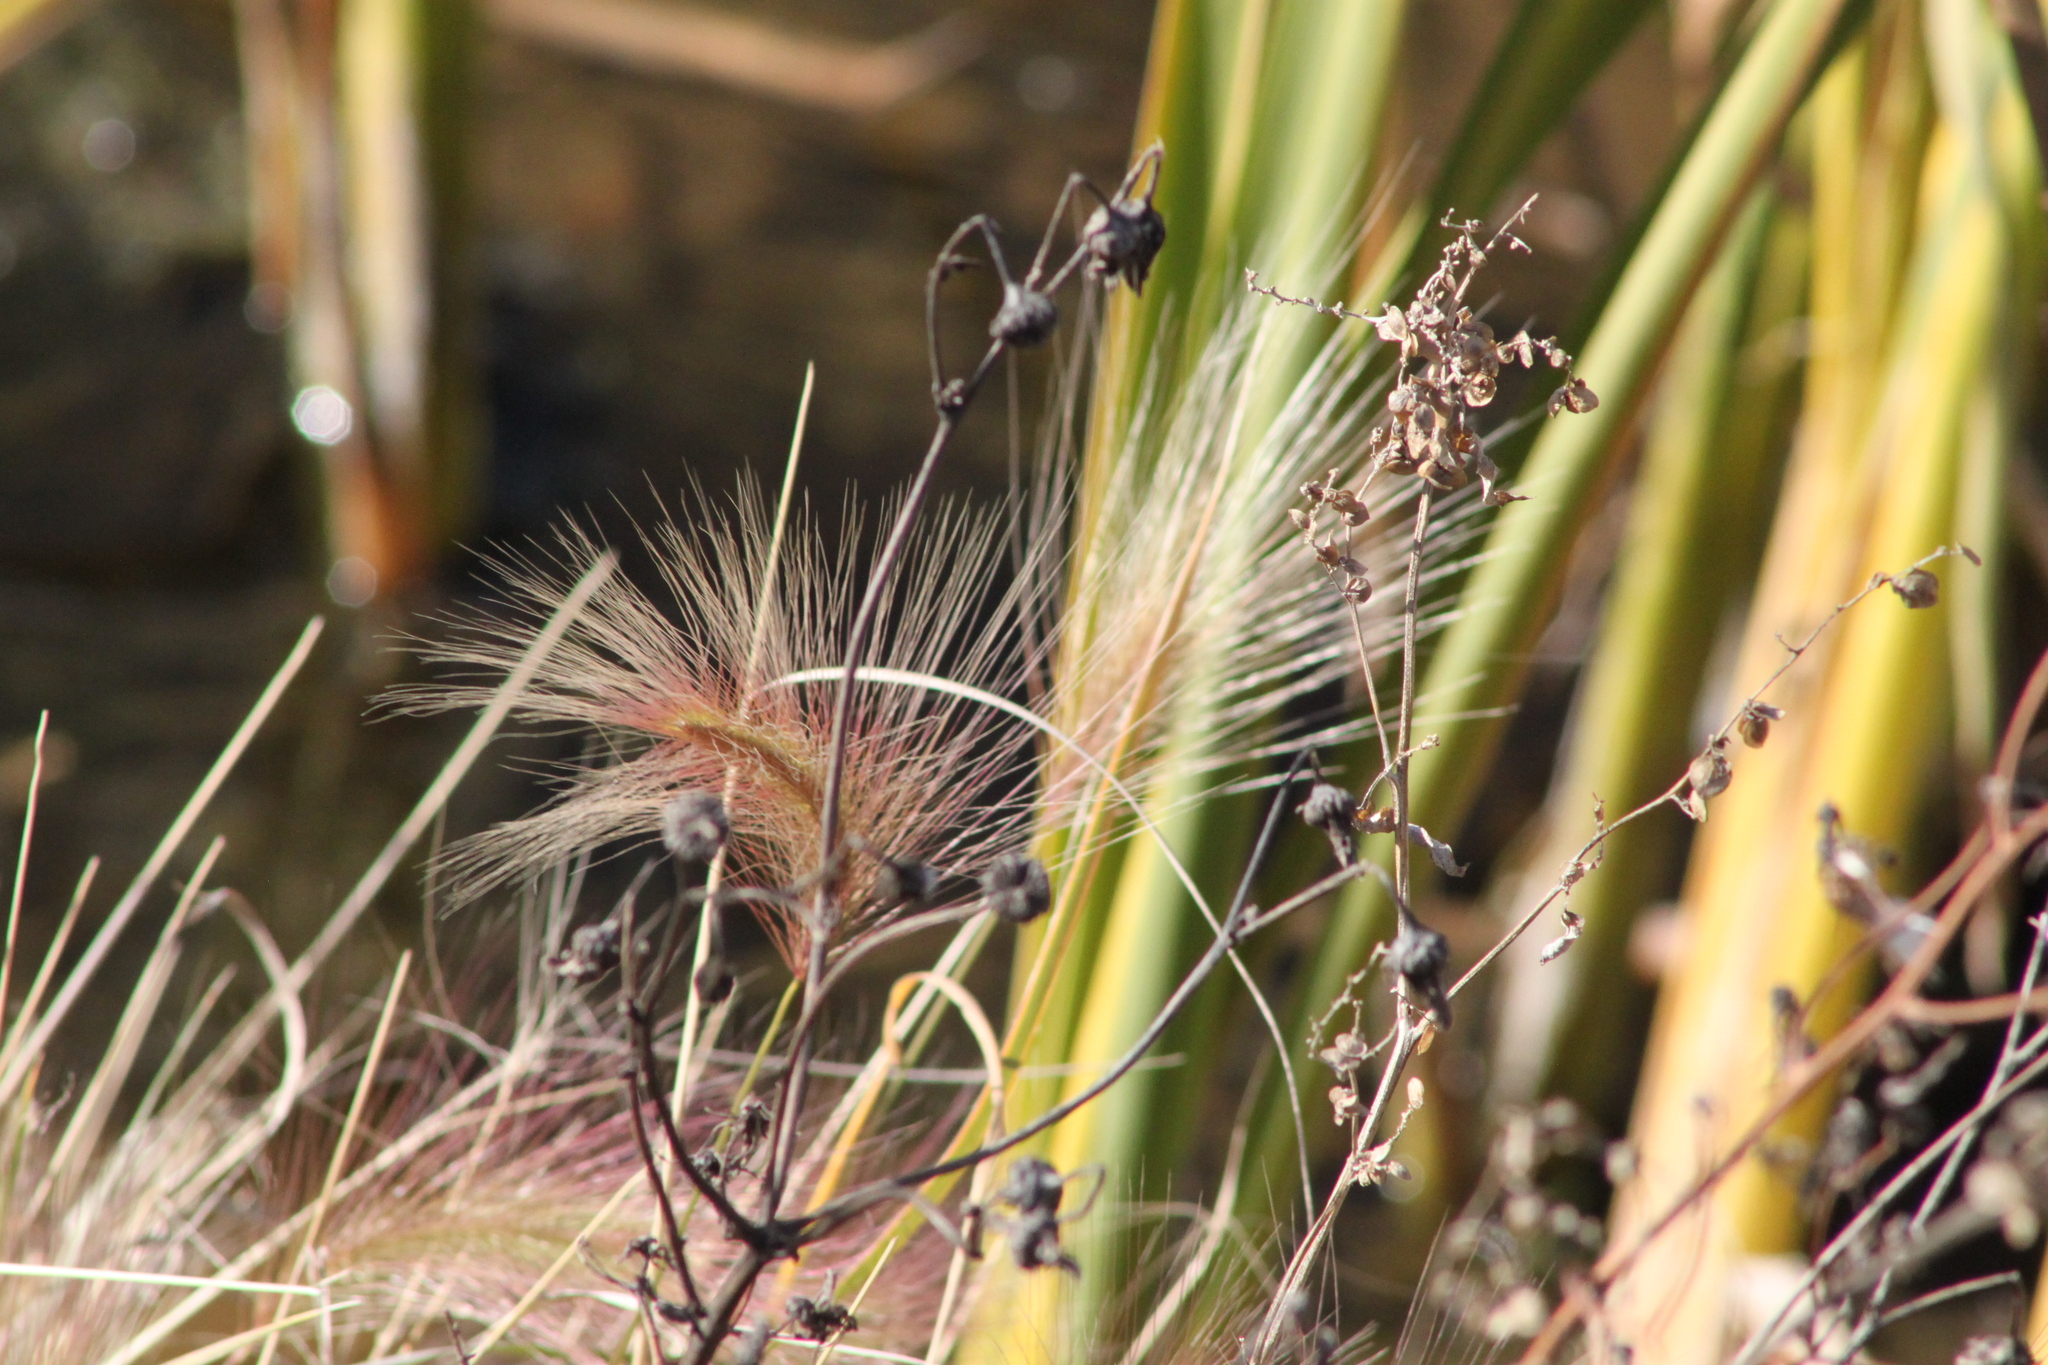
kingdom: Plantae
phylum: Tracheophyta
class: Liliopsida
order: Poales
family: Poaceae
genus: Hordeum
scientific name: Hordeum jubatum
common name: Foxtail barley
